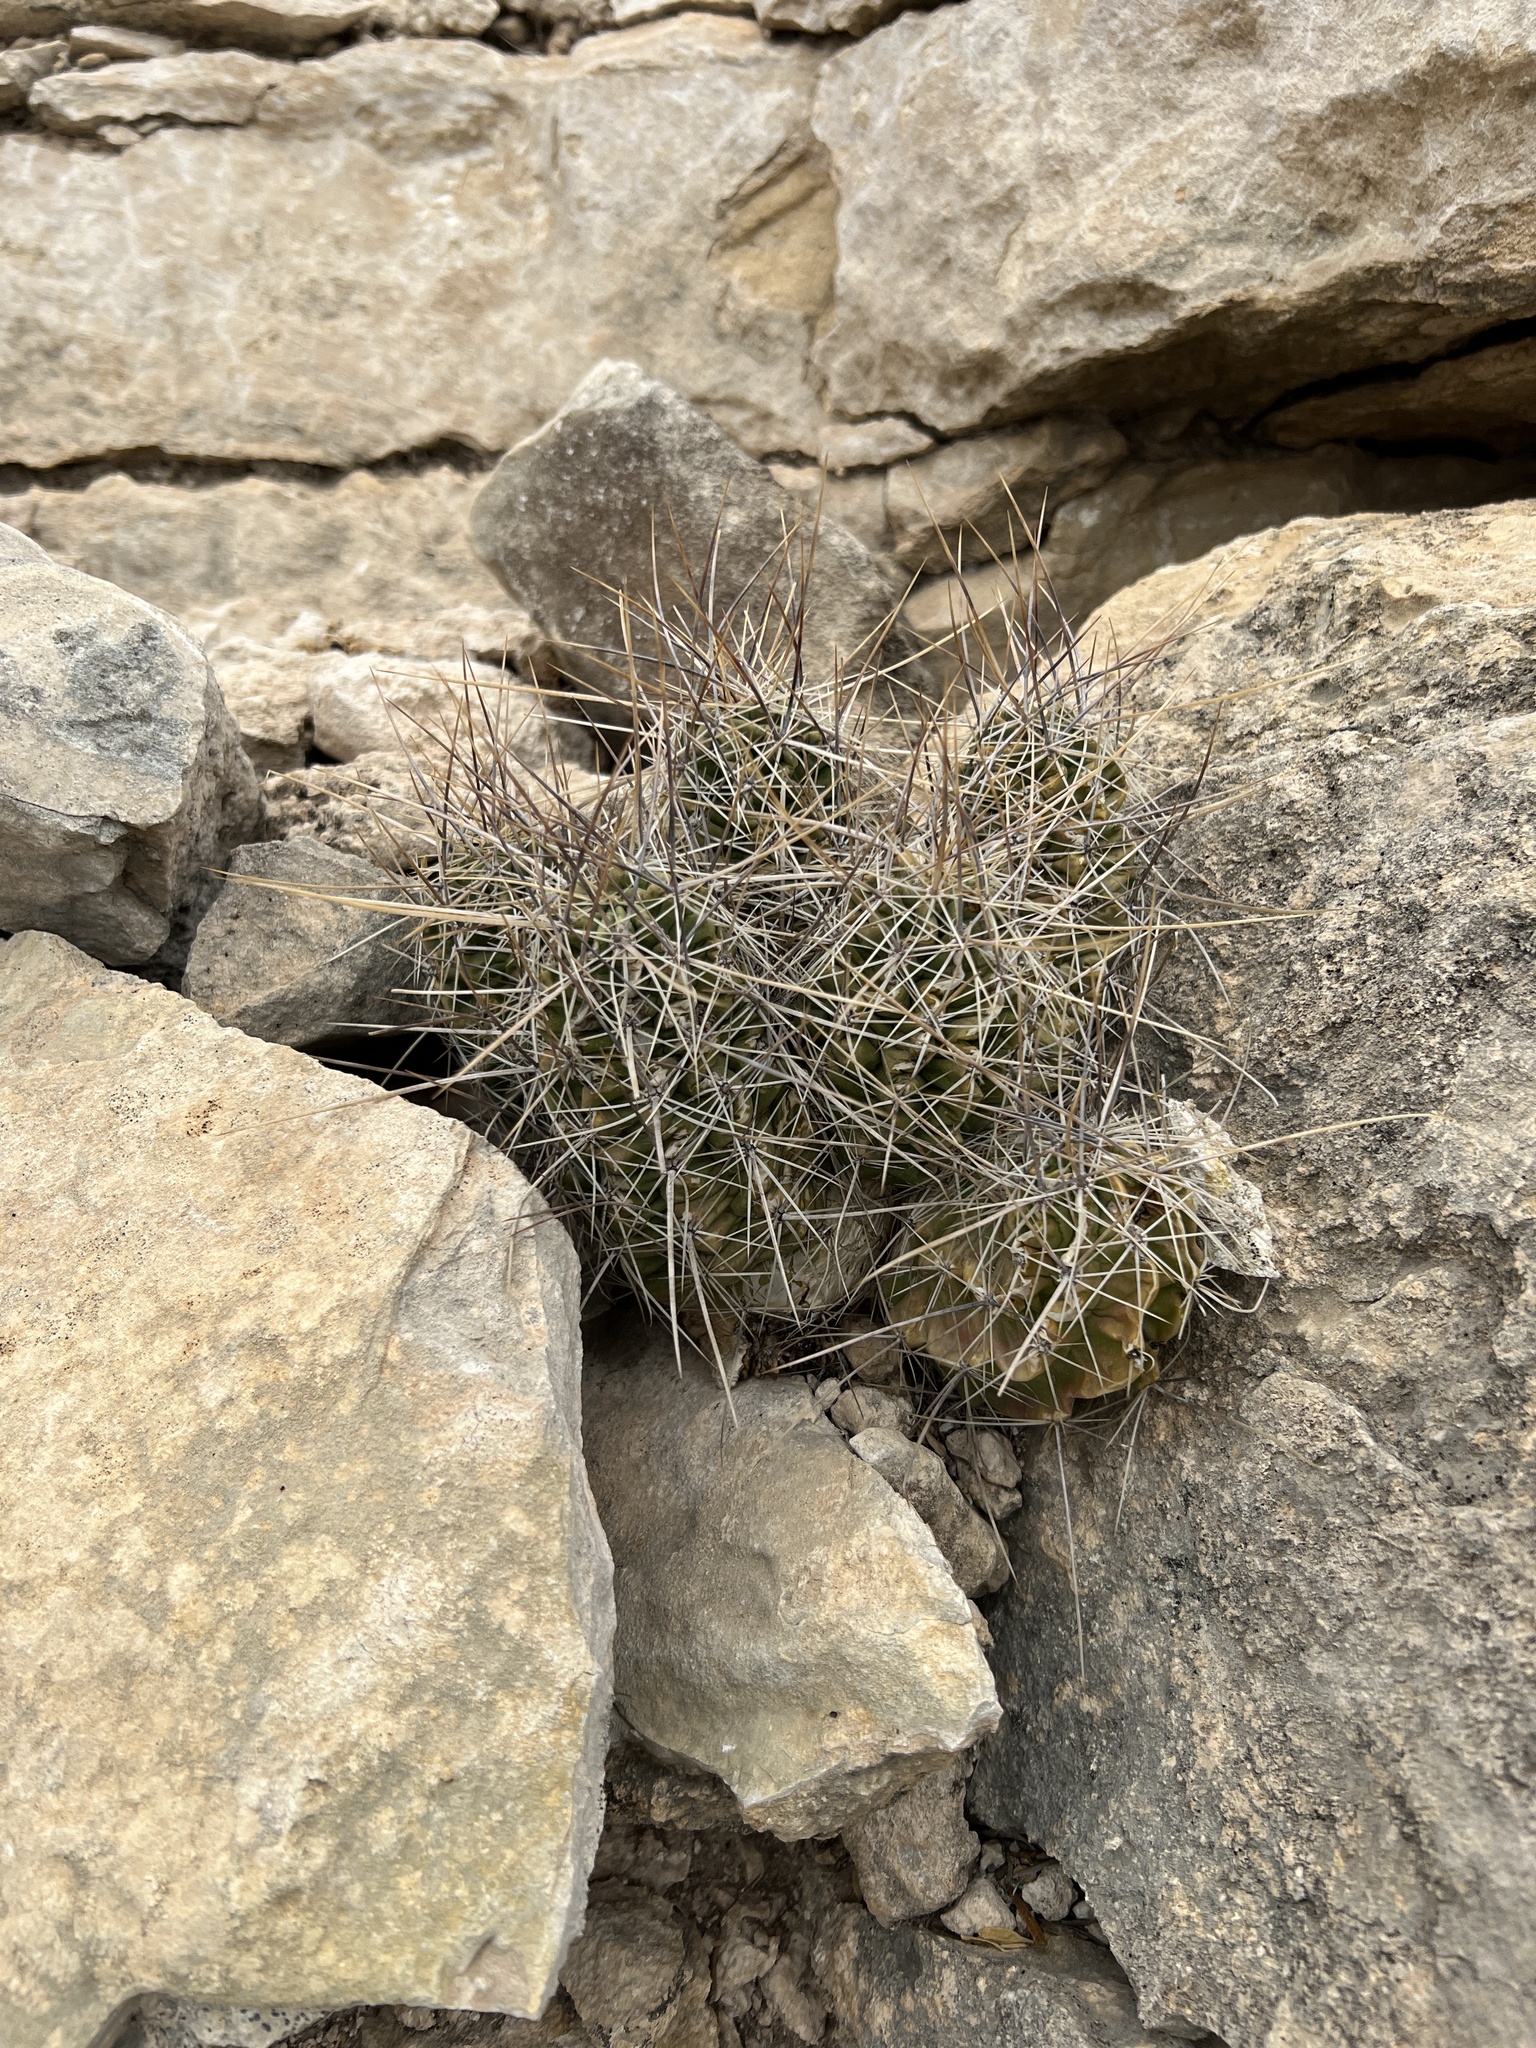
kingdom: Plantae
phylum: Tracheophyta
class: Magnoliopsida
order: Caryophyllales
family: Cactaceae
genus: Echinocereus
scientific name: Echinocereus stramineus
